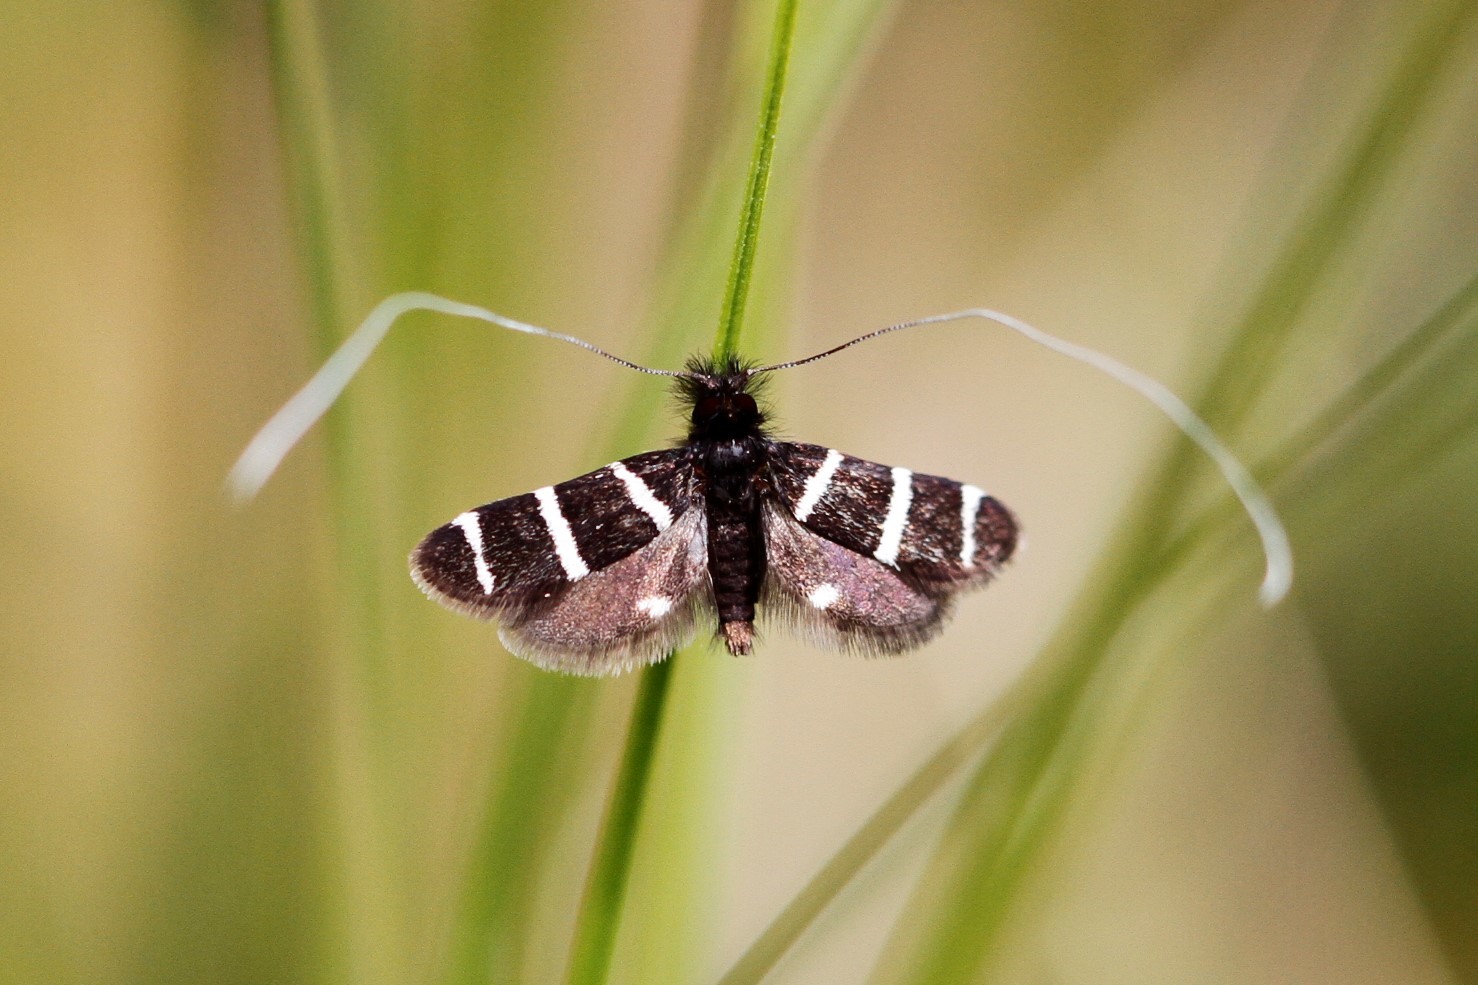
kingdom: Animalia
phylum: Arthropoda
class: Insecta
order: Lepidoptera
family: Adelidae
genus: Adela
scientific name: Adela trigrapha
